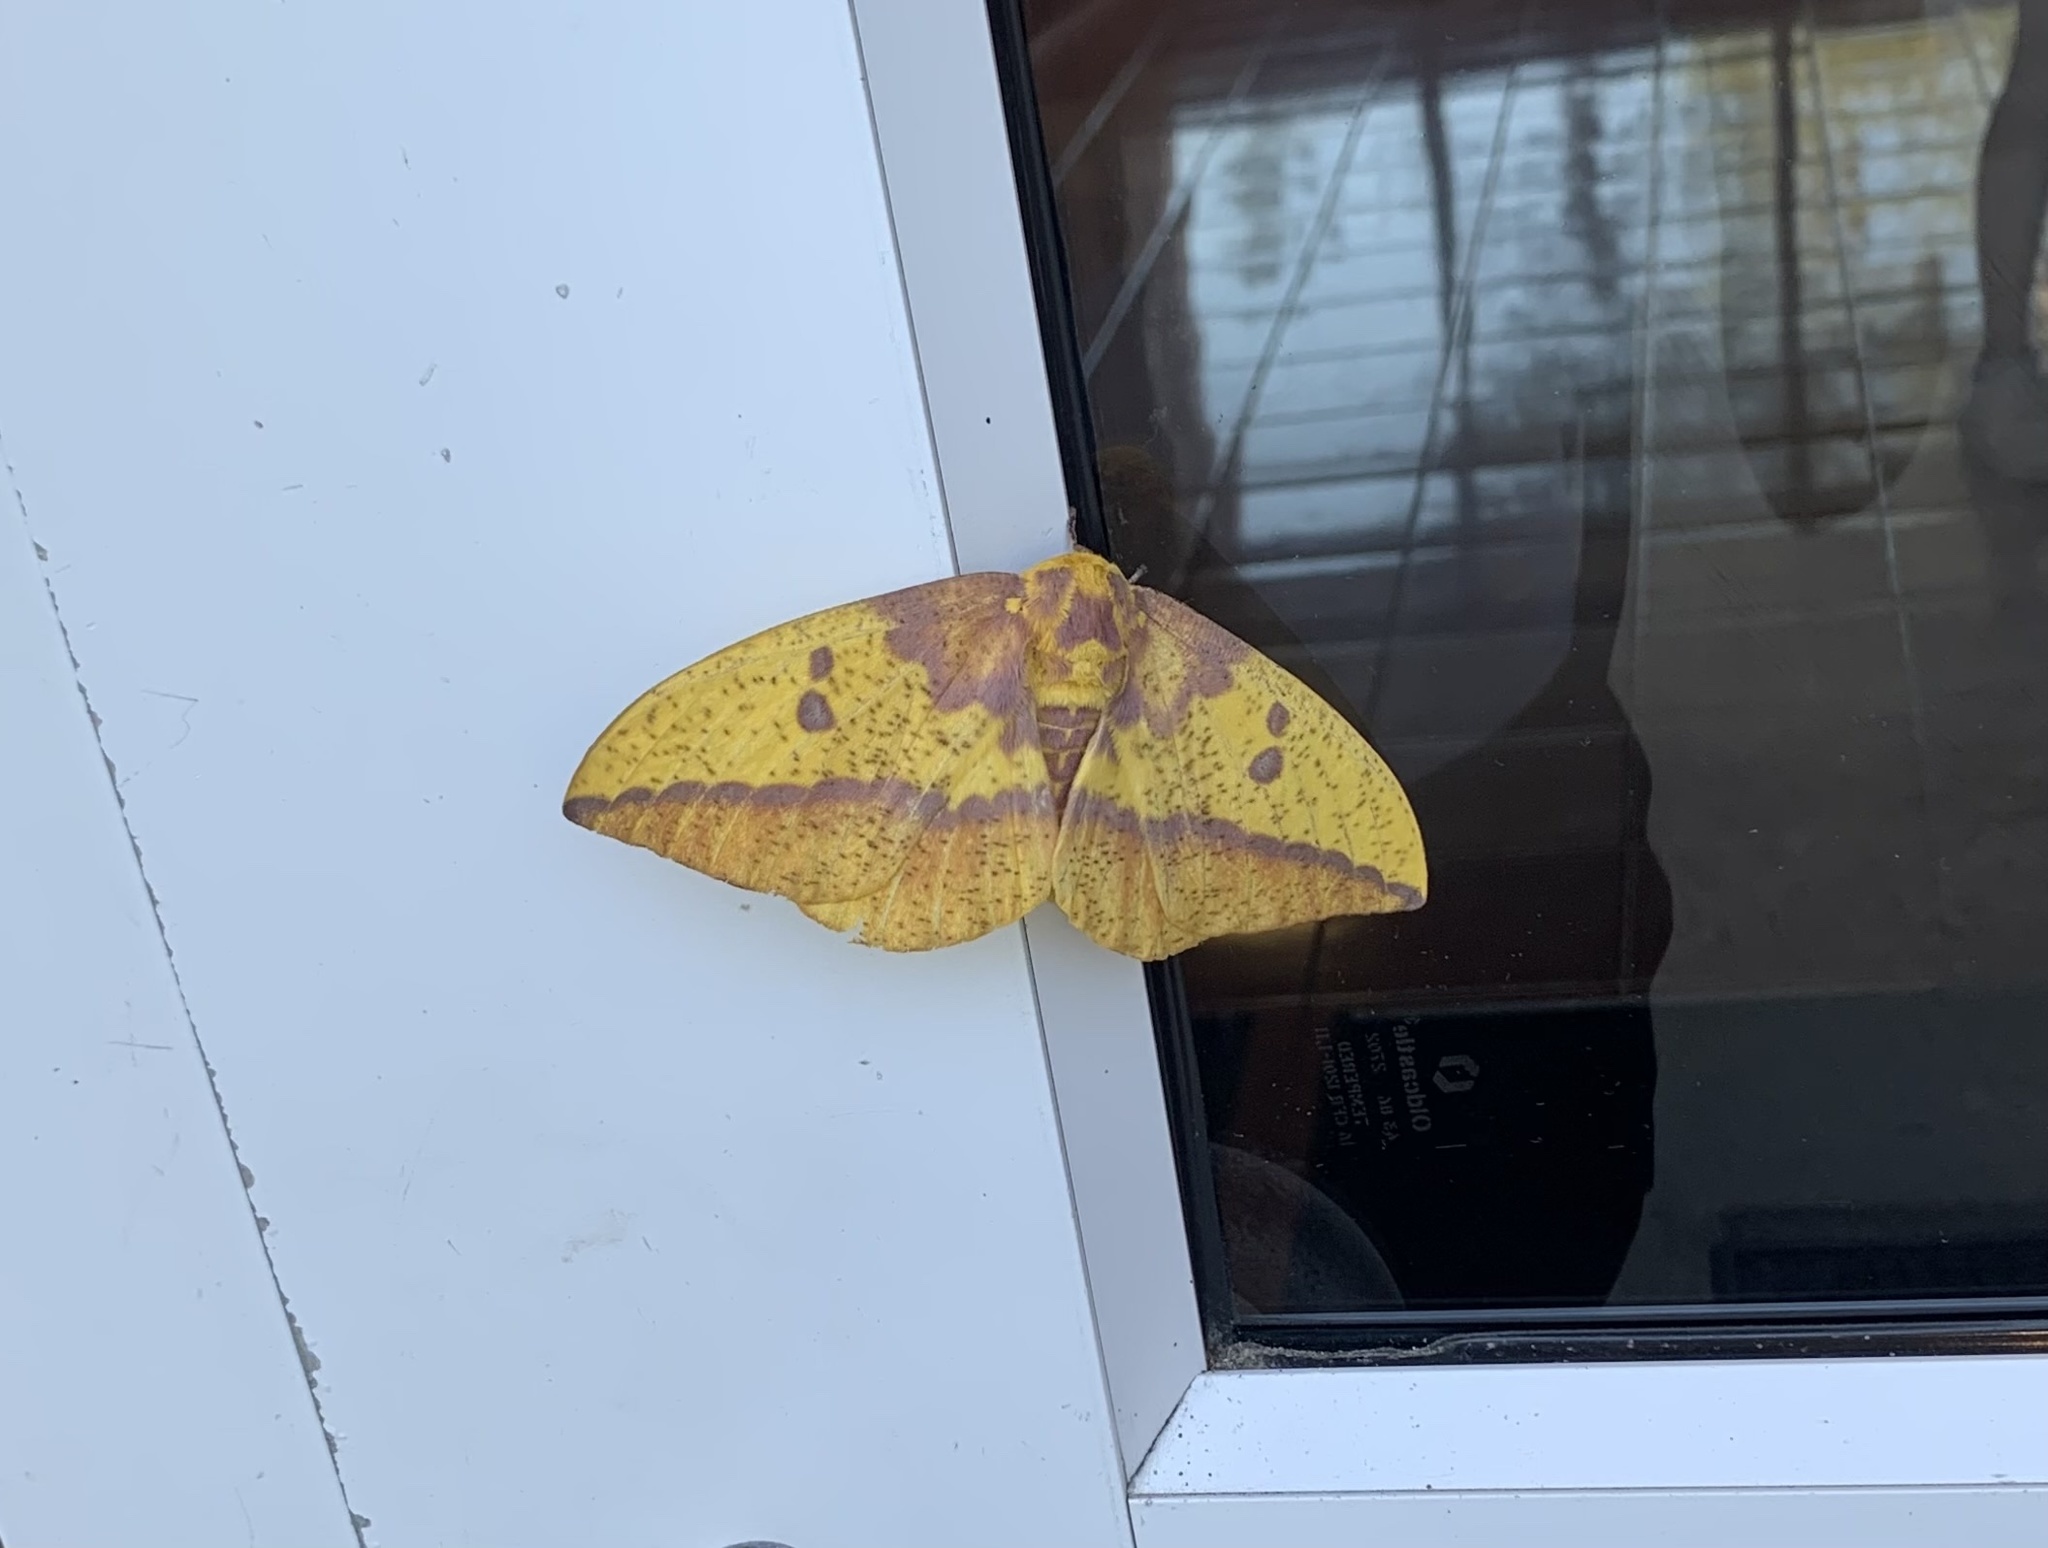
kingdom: Animalia
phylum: Arthropoda
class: Insecta
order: Lepidoptera
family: Saturniidae
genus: Eacles
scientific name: Eacles imperialis
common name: Imperial moth
